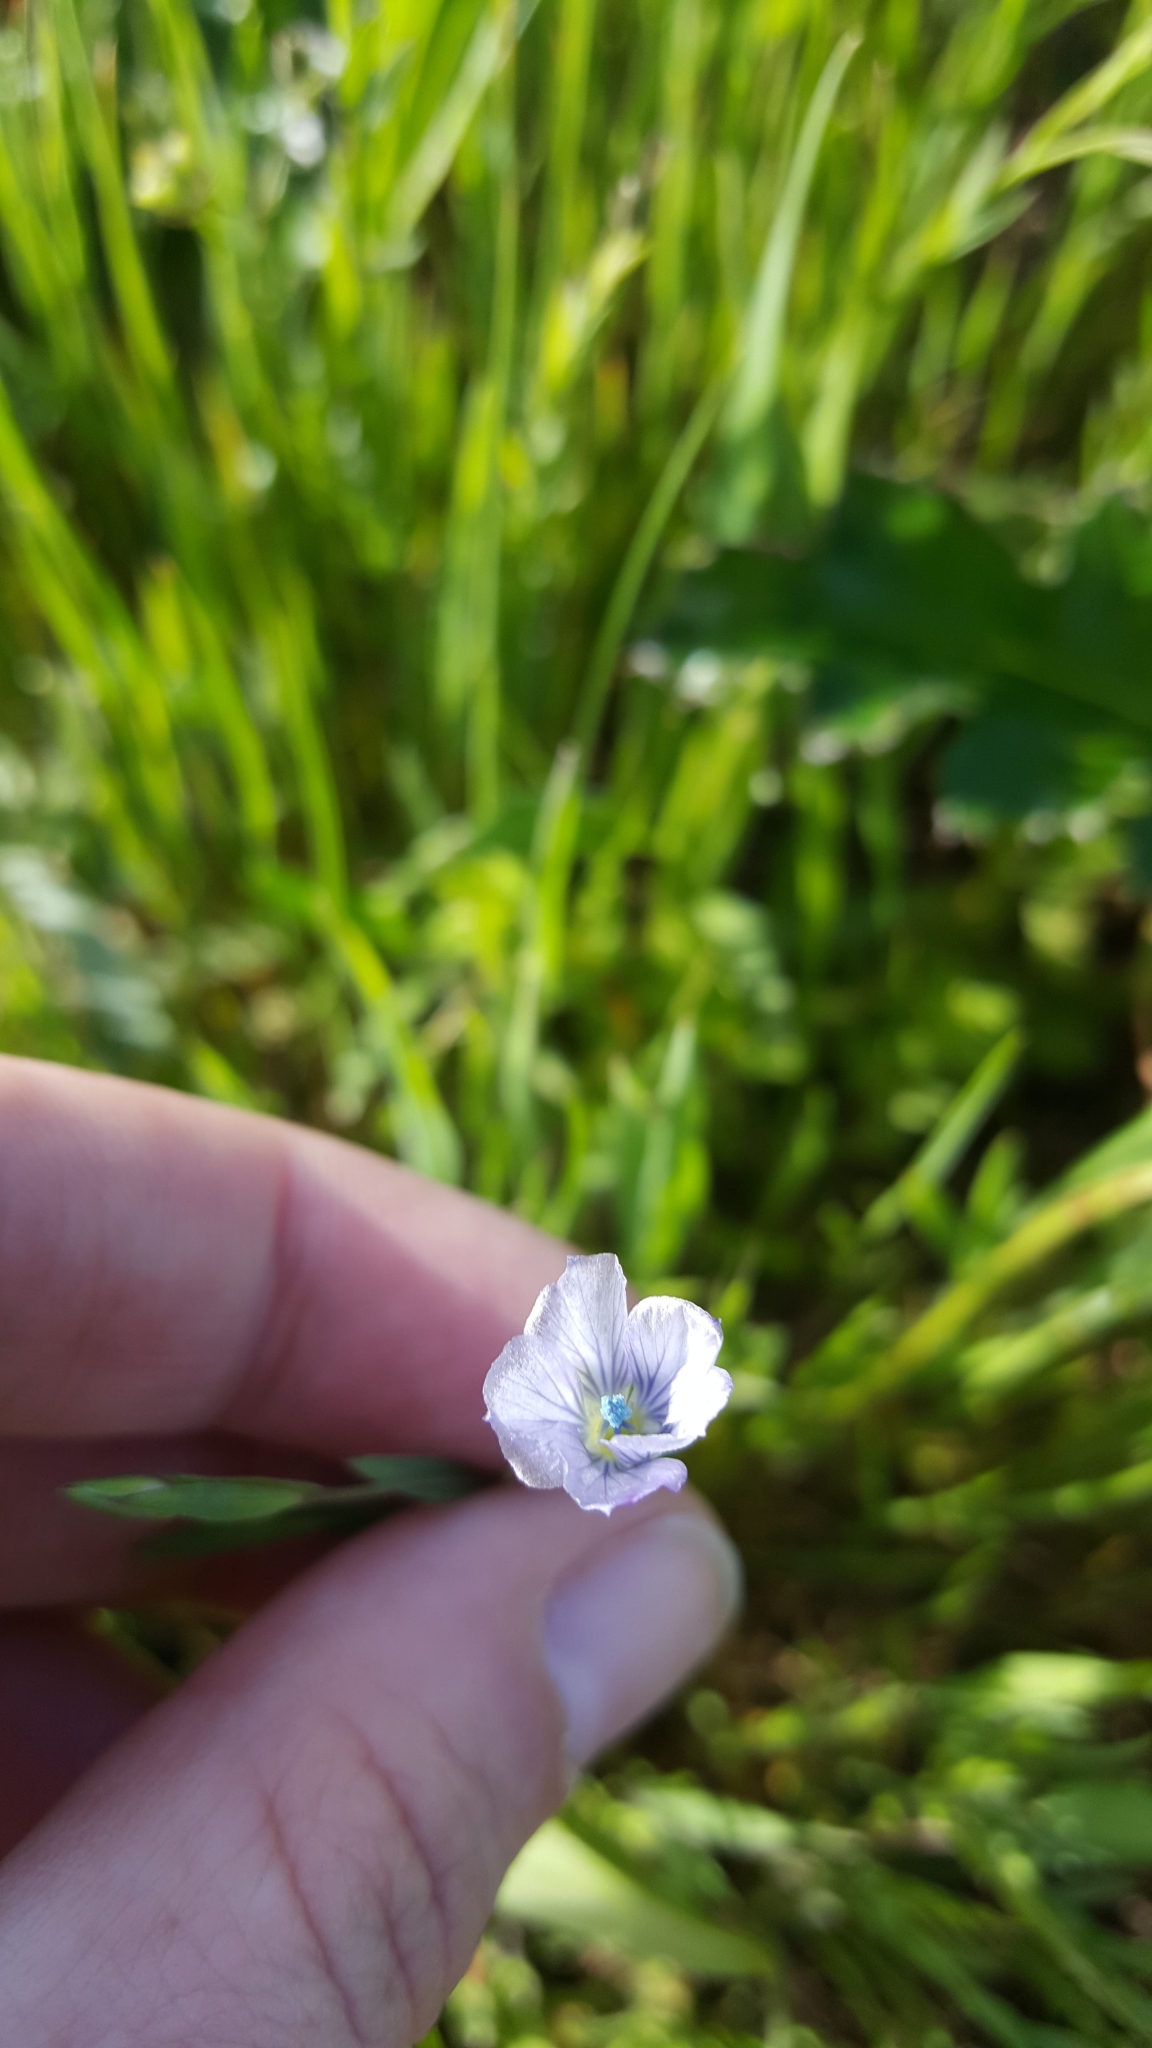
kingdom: Plantae
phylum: Tracheophyta
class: Magnoliopsida
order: Malpighiales
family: Linaceae
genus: Linum
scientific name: Linum bienne
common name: Pale flax
